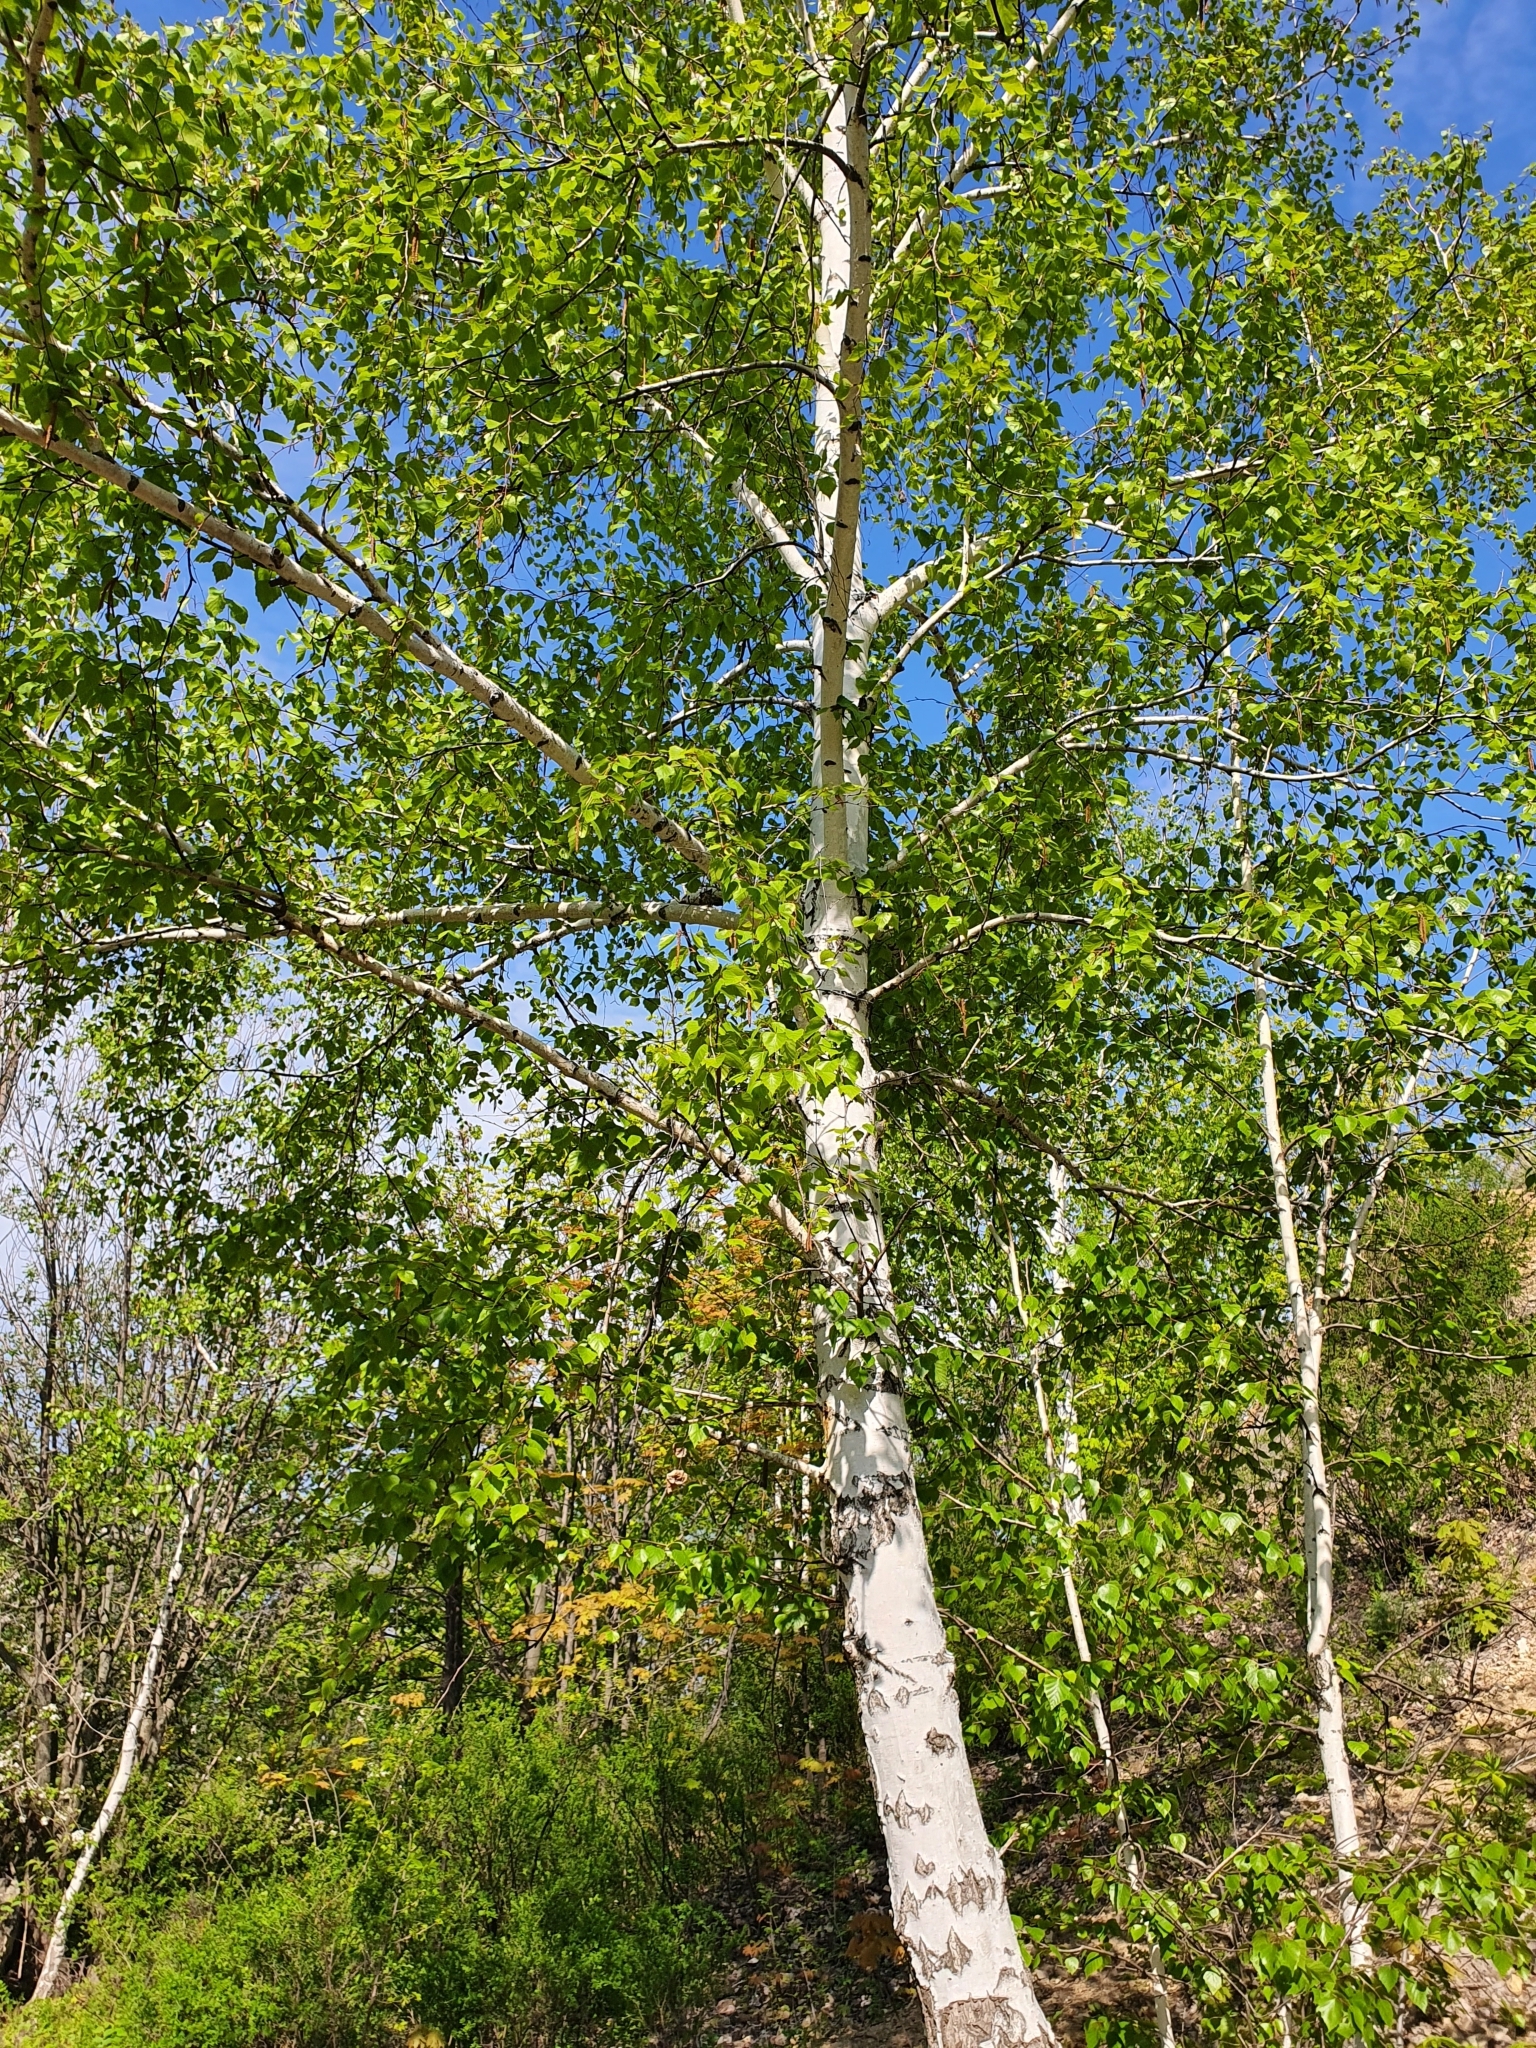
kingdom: Plantae
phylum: Tracheophyta
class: Magnoliopsida
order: Fagales
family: Betulaceae
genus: Betula
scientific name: Betula pendula
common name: Silver birch
